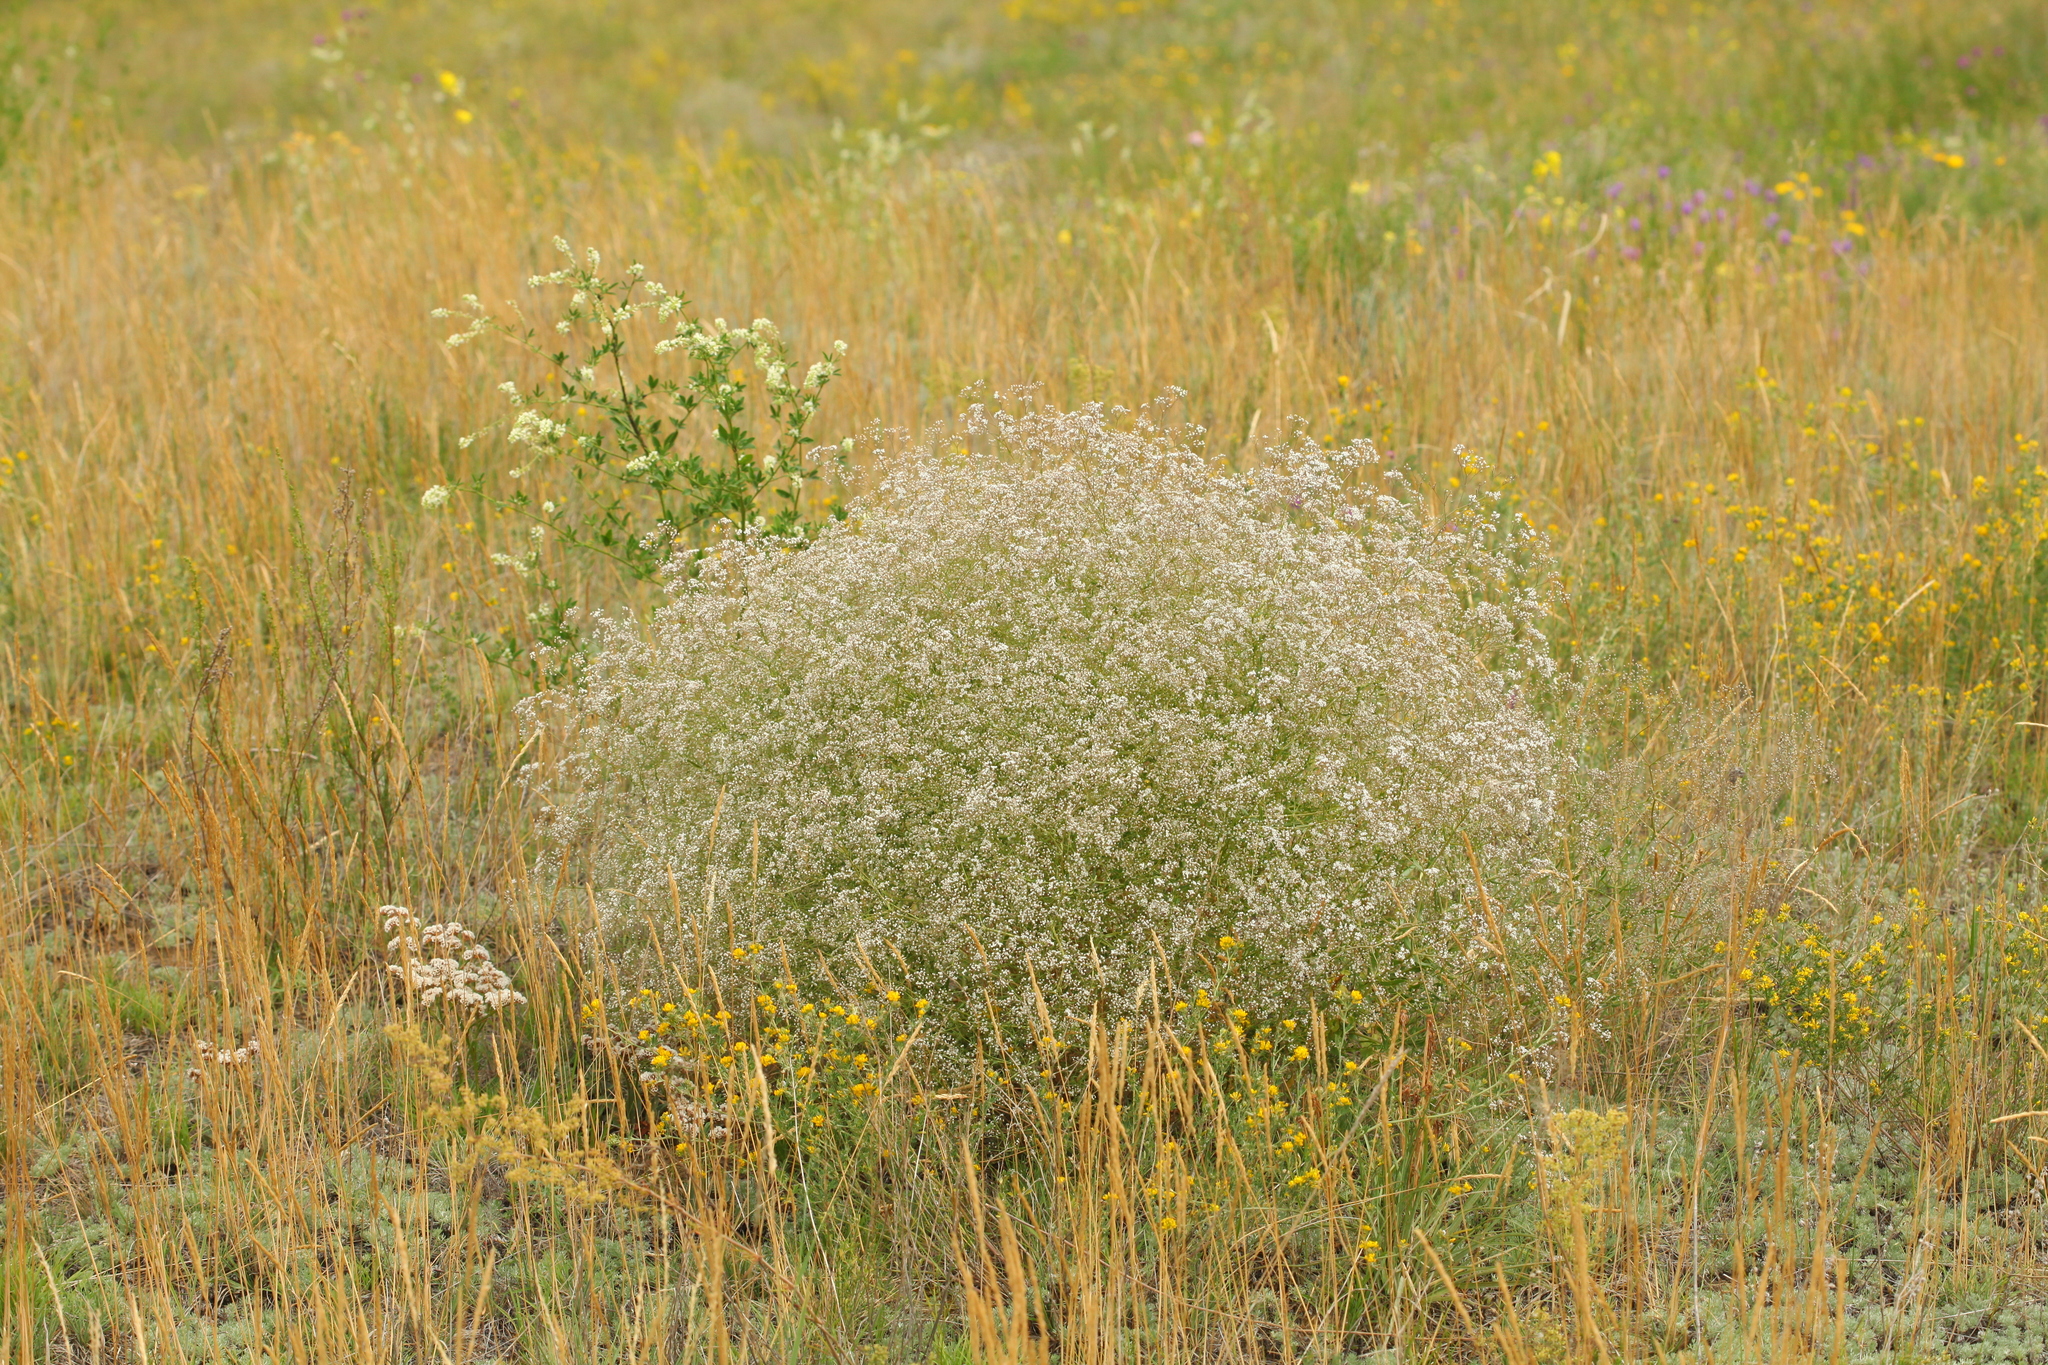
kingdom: Plantae
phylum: Tracheophyta
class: Magnoliopsida
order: Caryophyllales
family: Caryophyllaceae
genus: Gypsophila
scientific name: Gypsophila paniculata
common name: Baby's-breath
